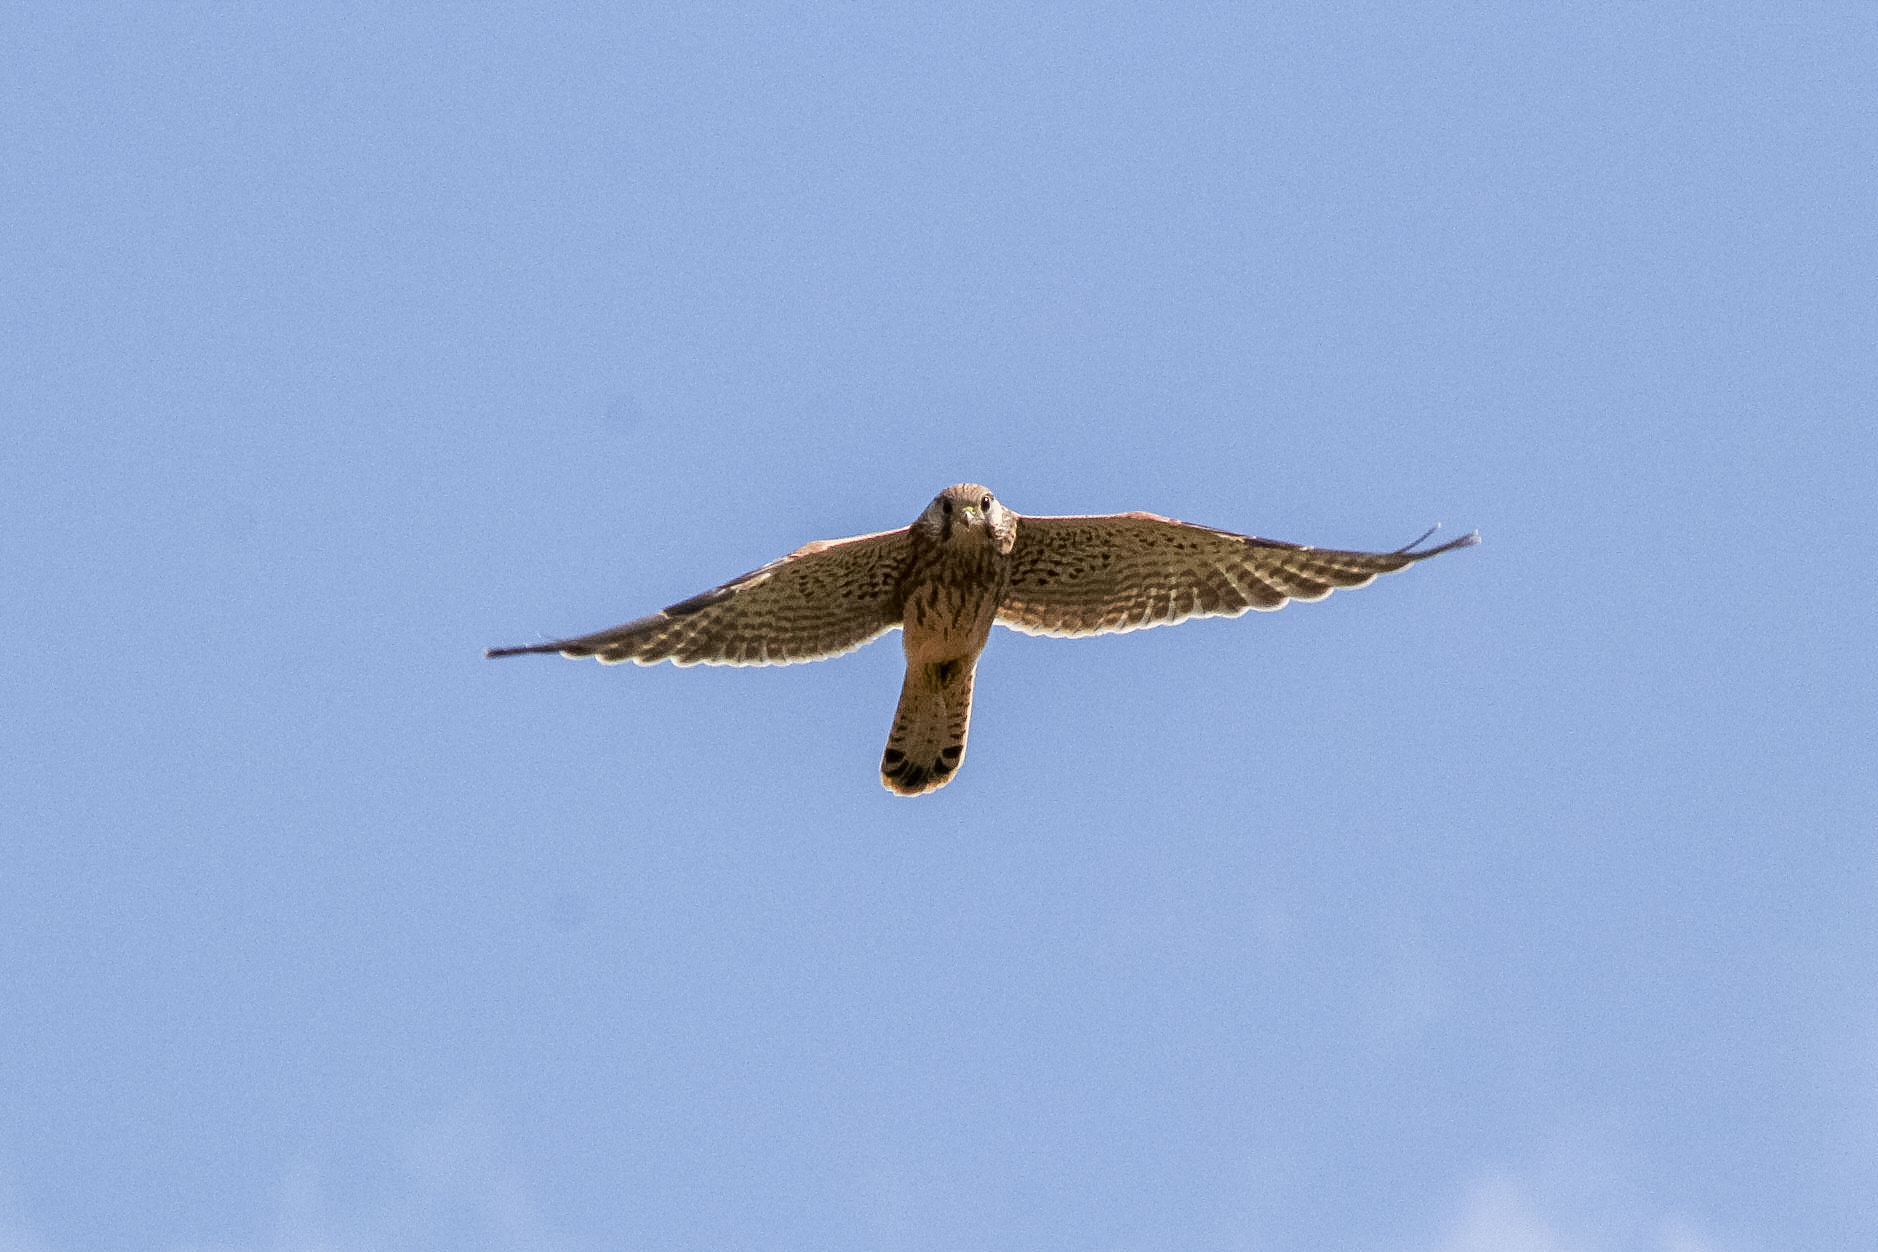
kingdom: Animalia
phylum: Chordata
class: Aves
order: Falconiformes
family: Falconidae
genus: Falco
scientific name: Falco tinnunculus
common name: Common kestrel
